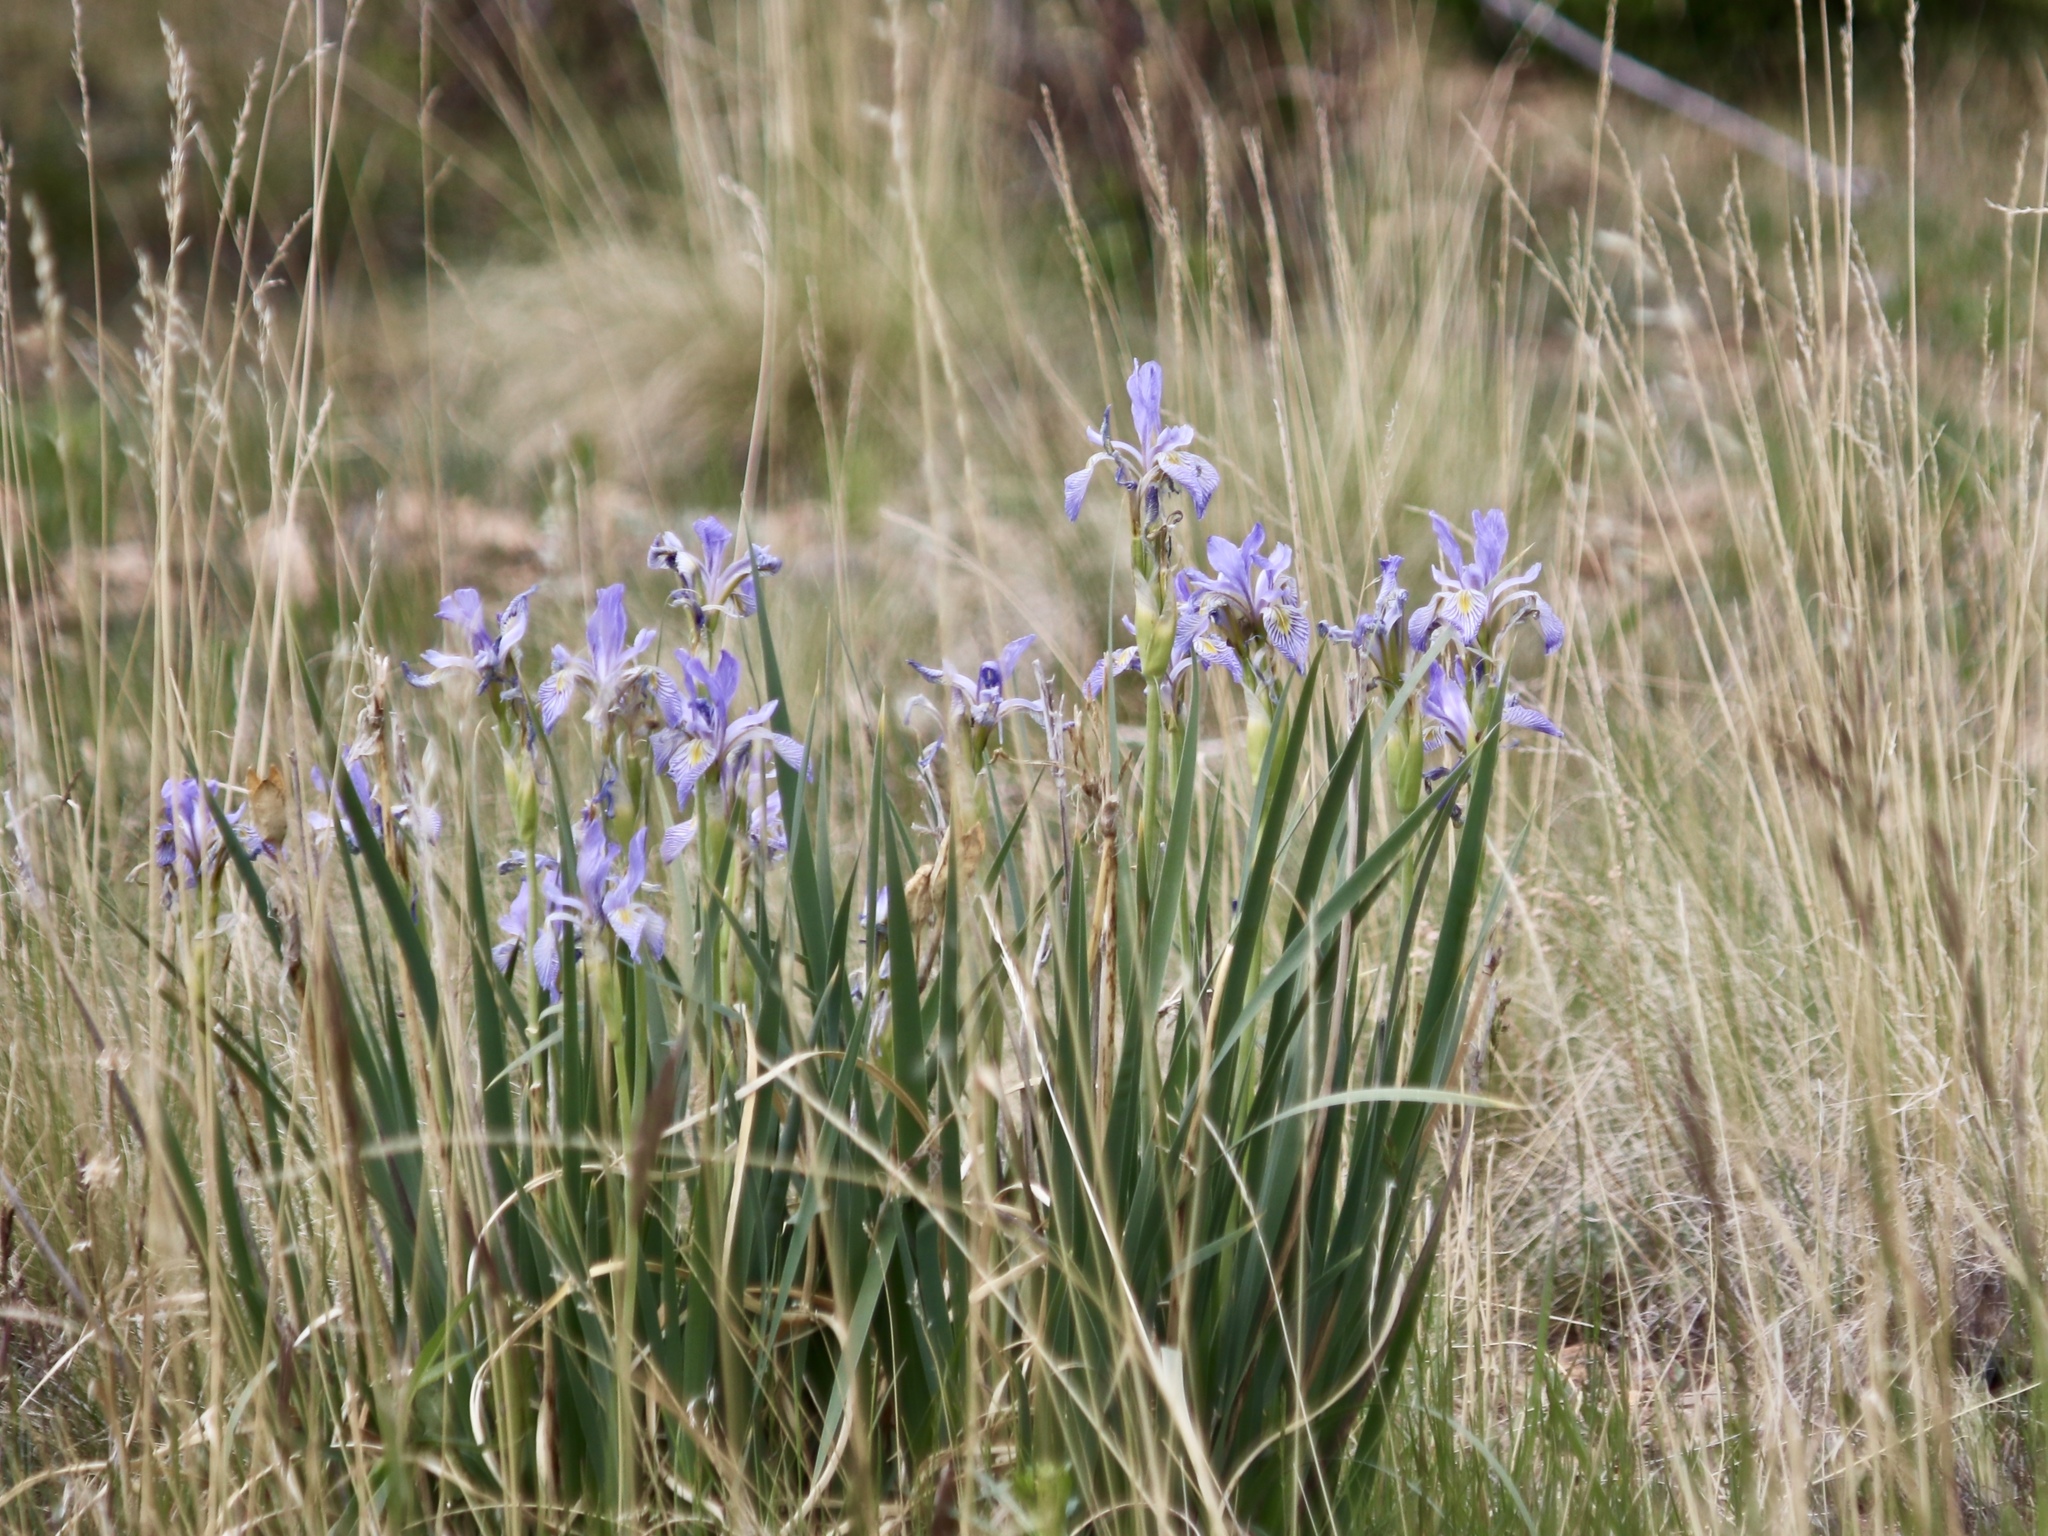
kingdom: Plantae
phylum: Tracheophyta
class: Liliopsida
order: Asparagales
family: Iridaceae
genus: Iris
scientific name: Iris missouriensis
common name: Rocky mountain iris
